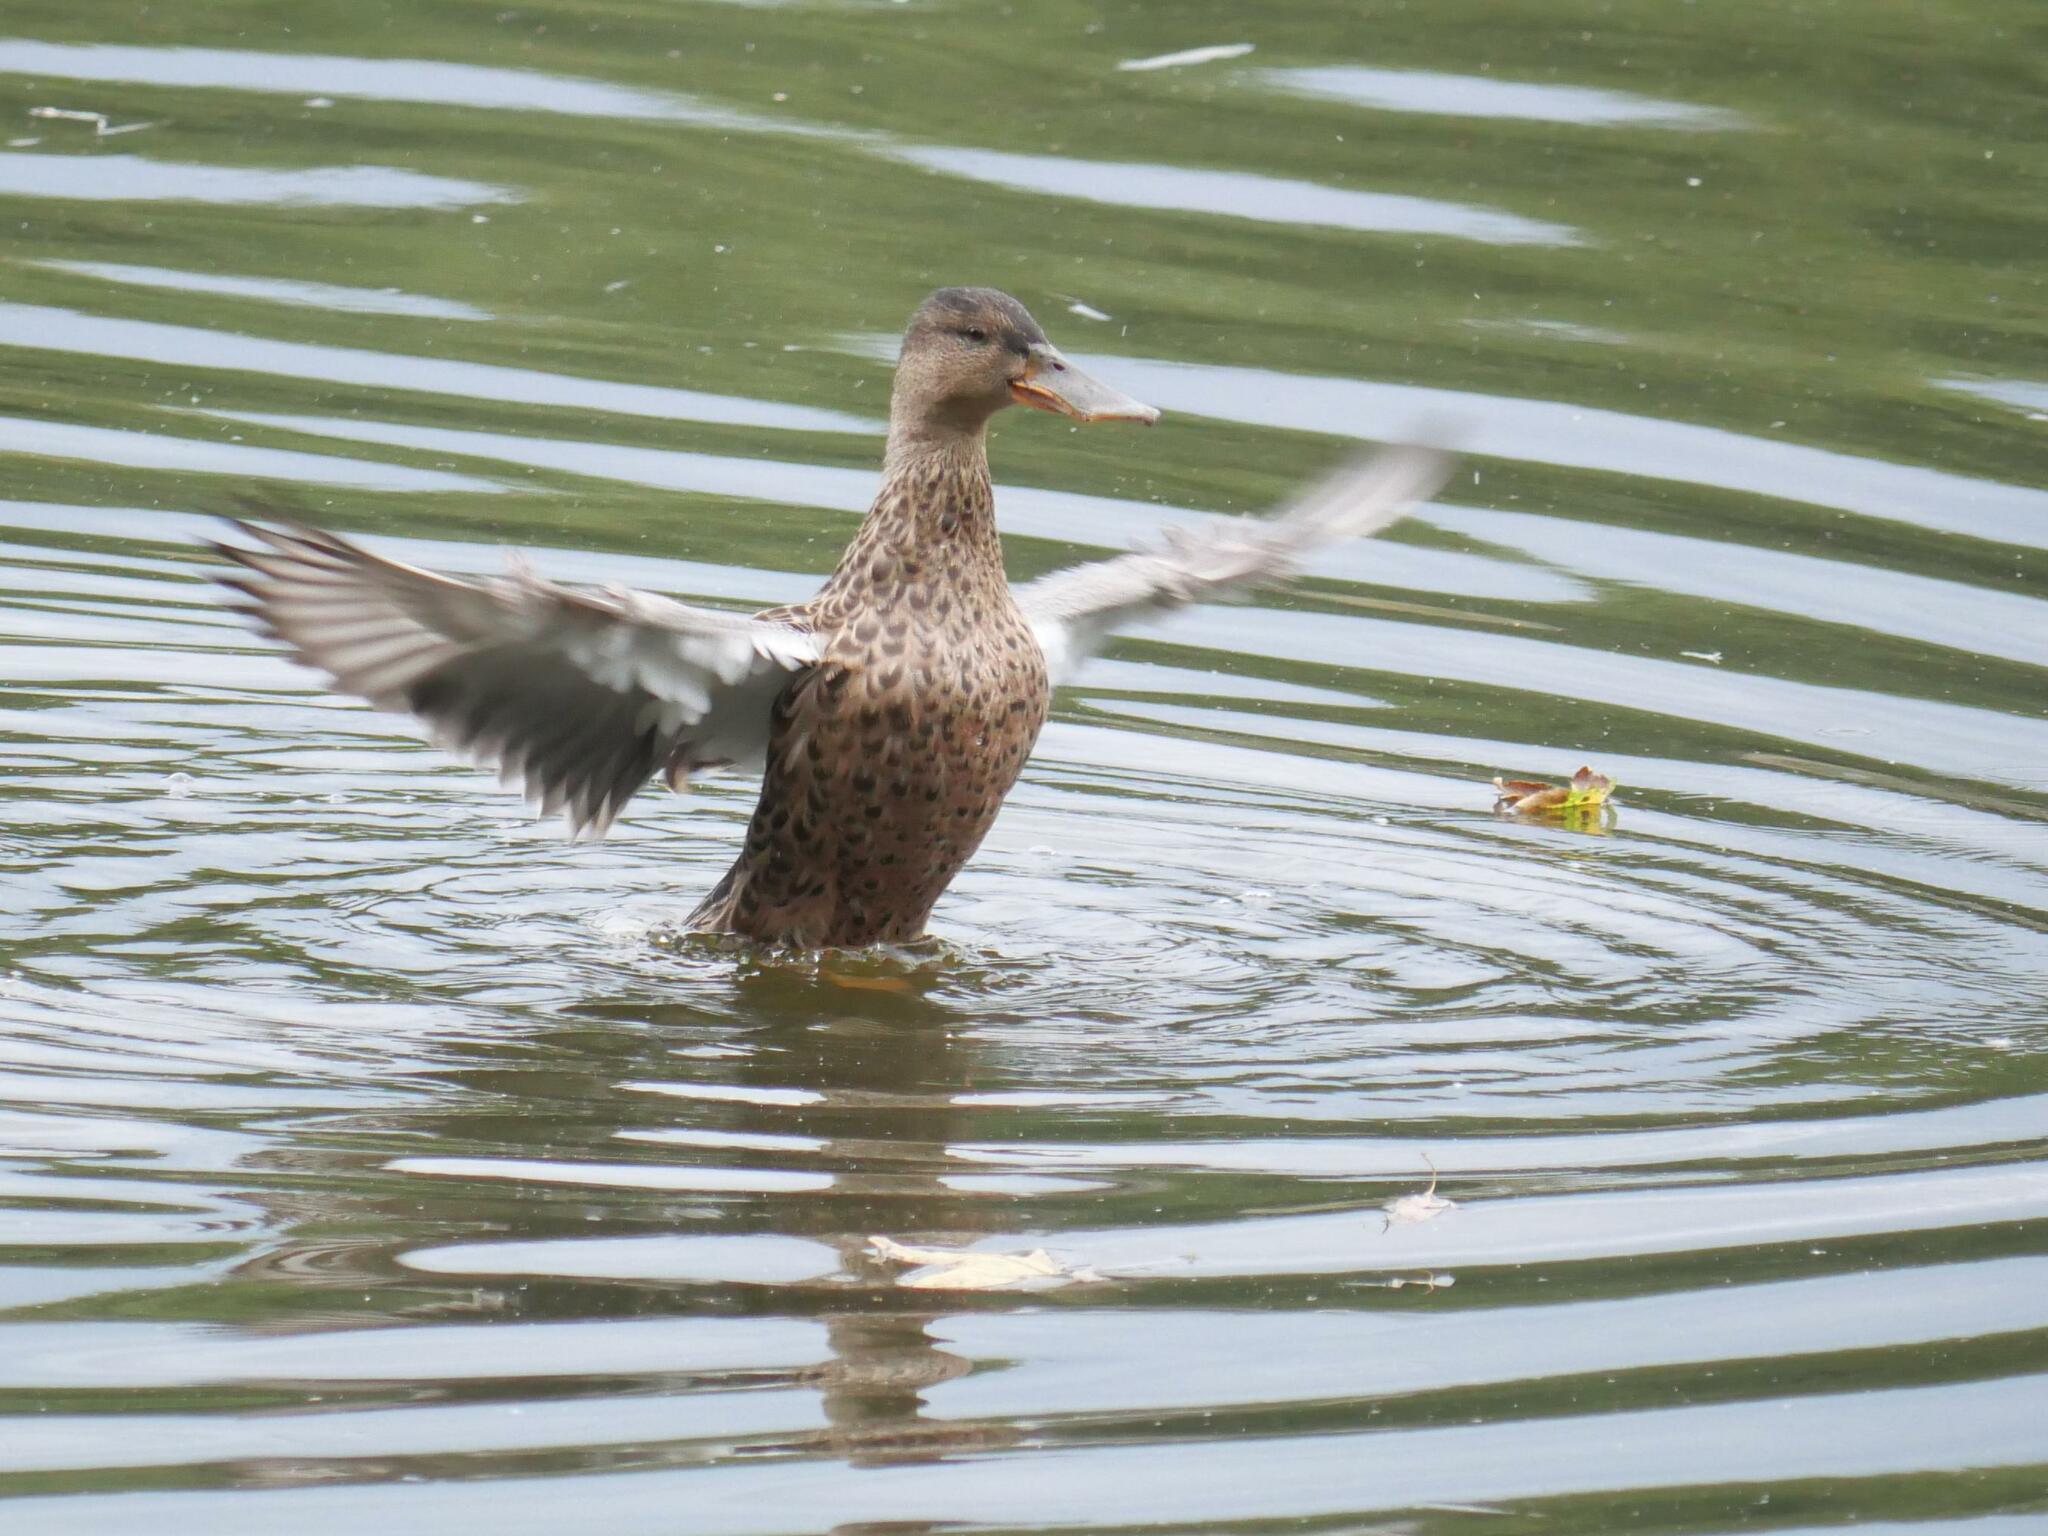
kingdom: Animalia
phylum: Chordata
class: Aves
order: Anseriformes
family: Anatidae
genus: Spatula
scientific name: Spatula clypeata
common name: Northern shoveler
